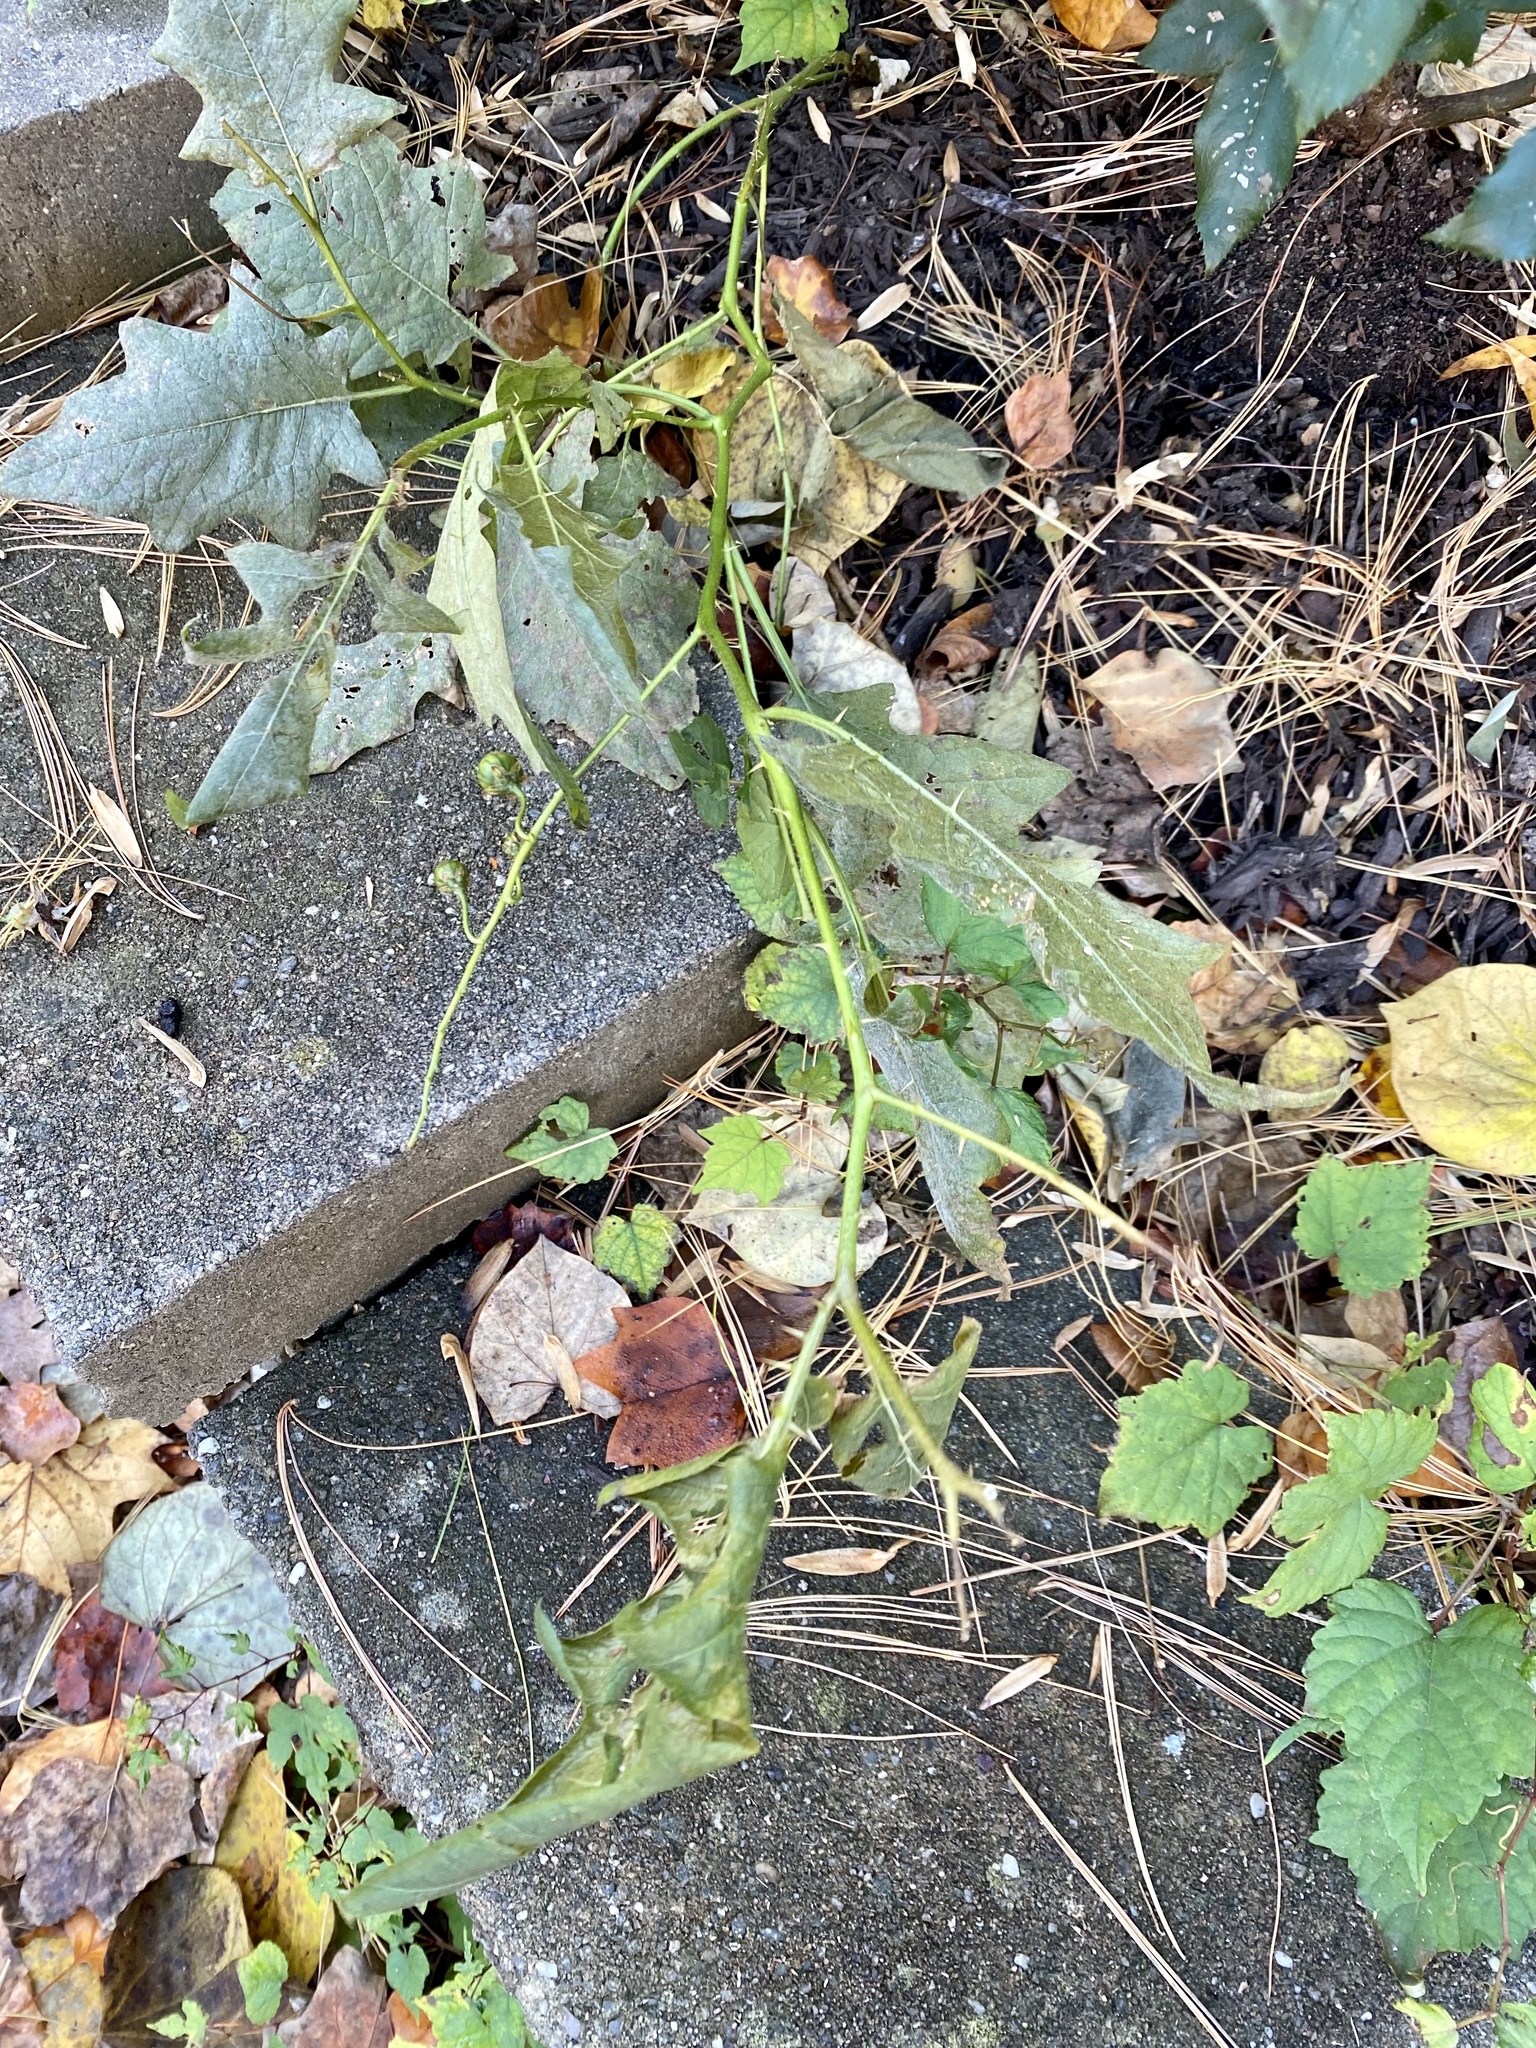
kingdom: Plantae
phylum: Tracheophyta
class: Magnoliopsida
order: Solanales
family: Solanaceae
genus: Solanum
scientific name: Solanum carolinense
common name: Horse-nettle
